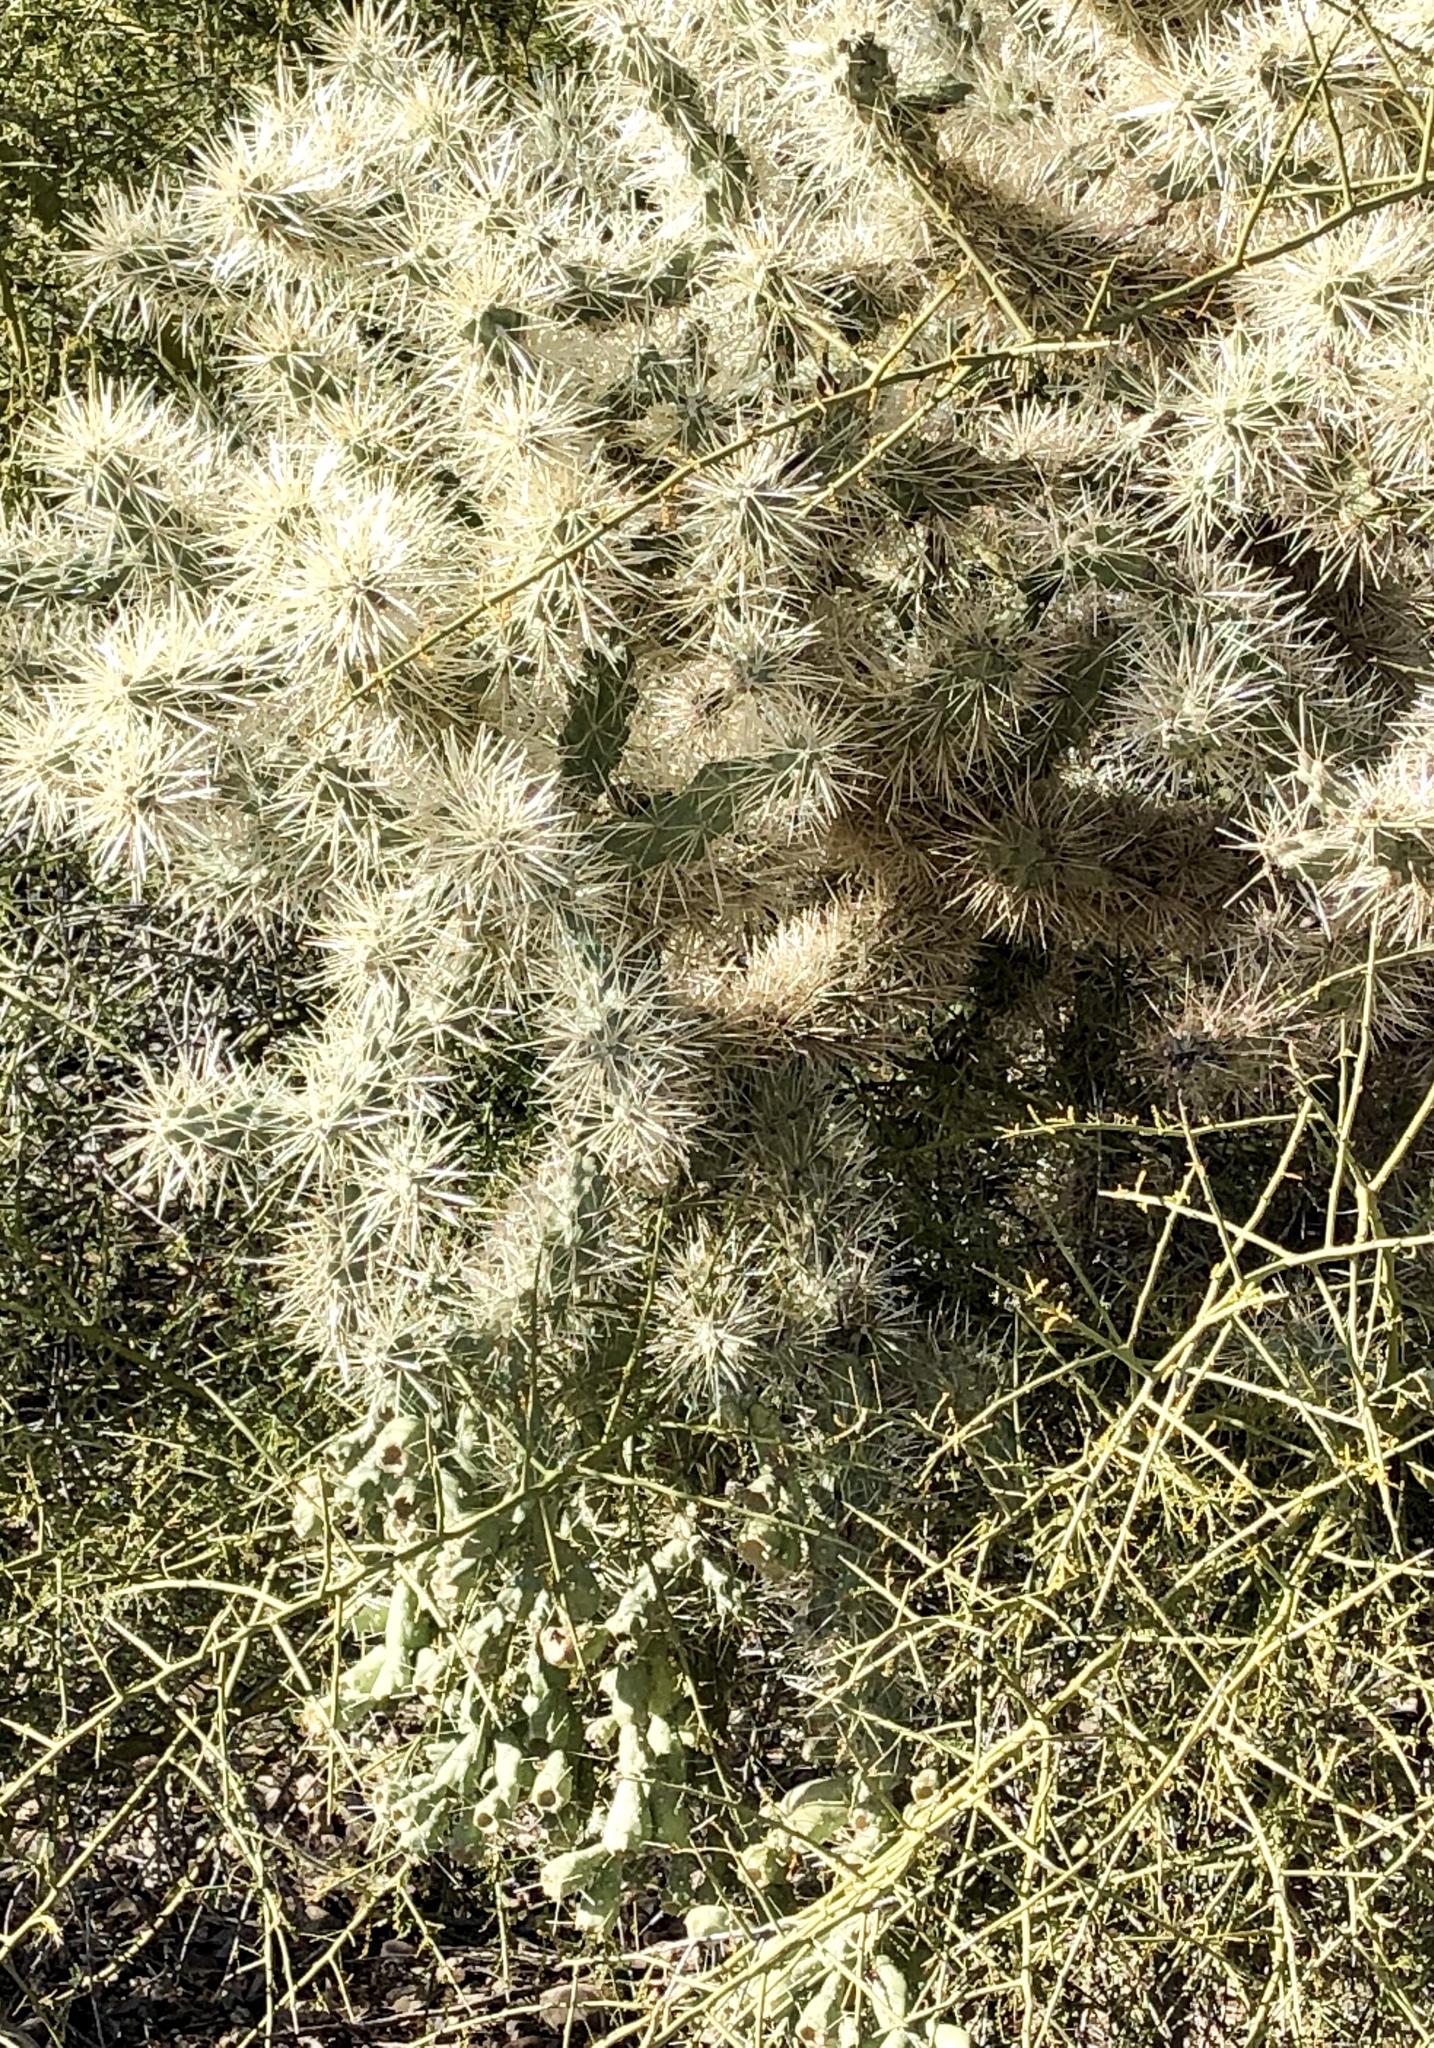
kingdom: Plantae
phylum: Tracheophyta
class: Magnoliopsida
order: Caryophyllales
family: Cactaceae
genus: Cylindropuntia
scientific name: Cylindropuntia fulgida
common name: Jumping cholla
